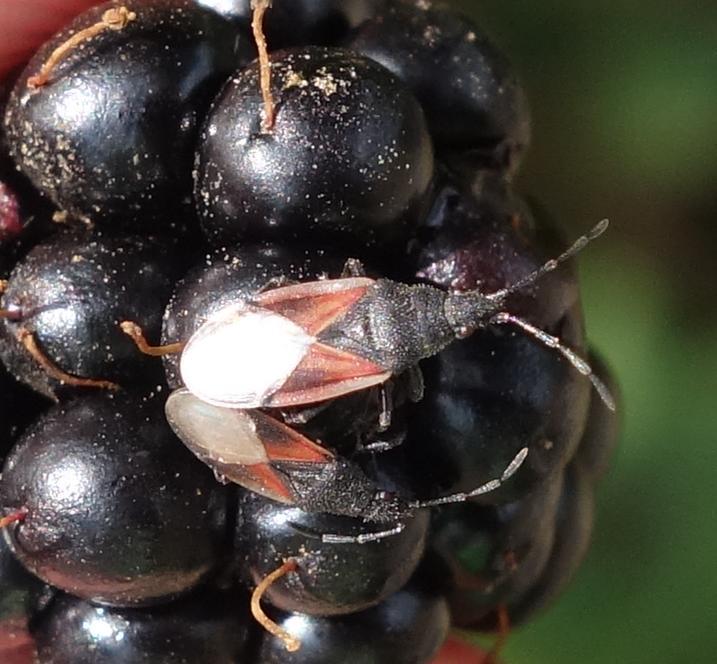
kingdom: Animalia
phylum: Arthropoda
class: Insecta
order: Hemiptera
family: Oxycarenidae
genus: Oxycarenus
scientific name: Oxycarenus lavaterae
